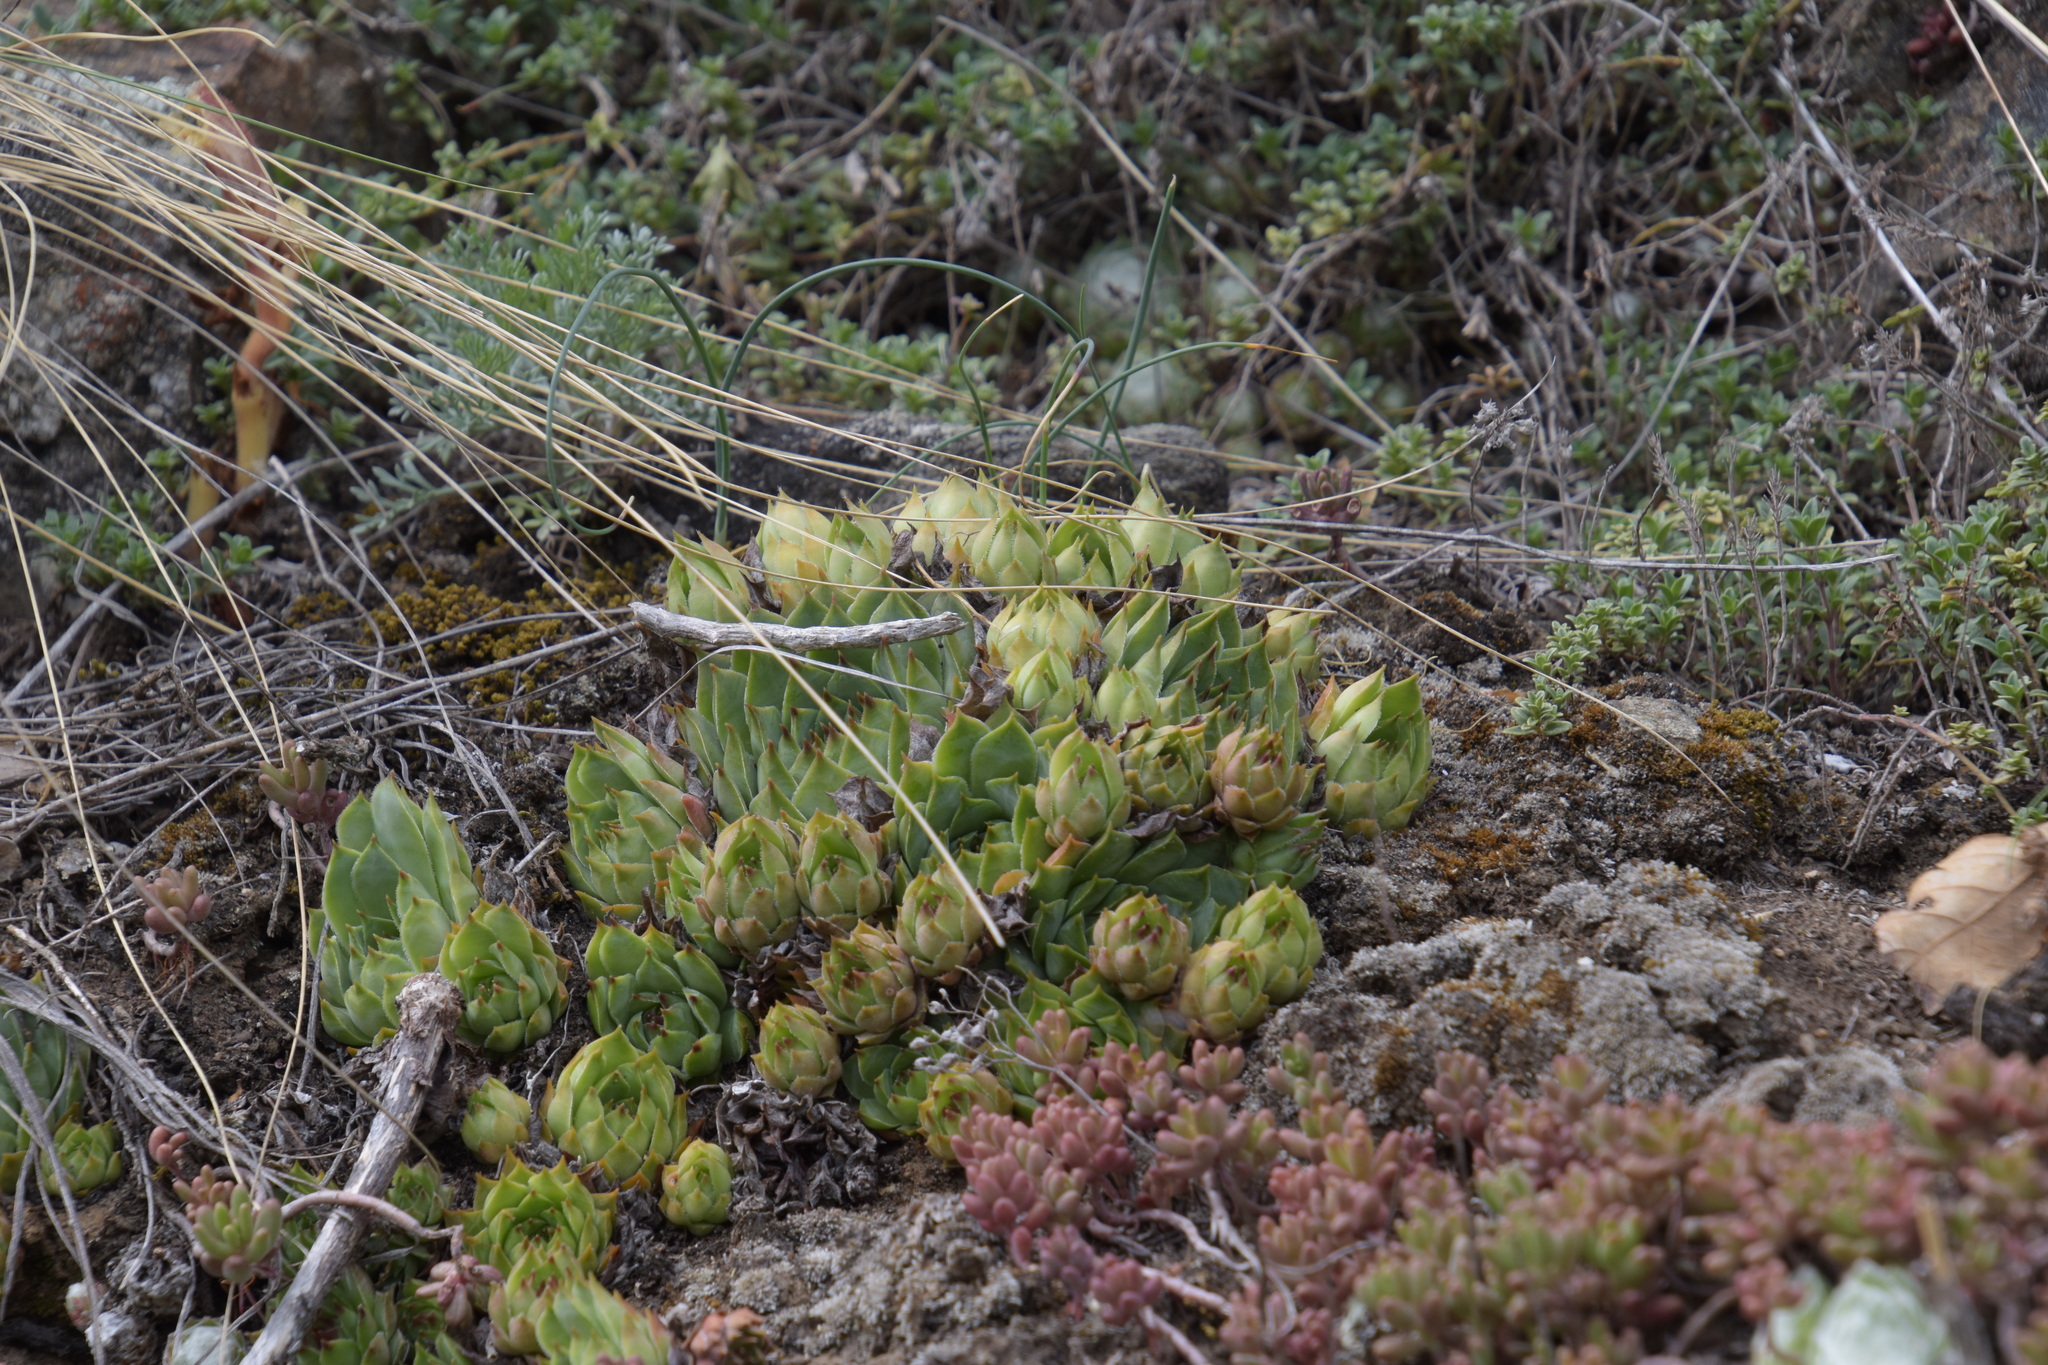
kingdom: Plantae
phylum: Tracheophyta
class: Magnoliopsida
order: Saxifragales
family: Crassulaceae
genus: Sempervivum
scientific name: Sempervivum tectorum
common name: House-leek
